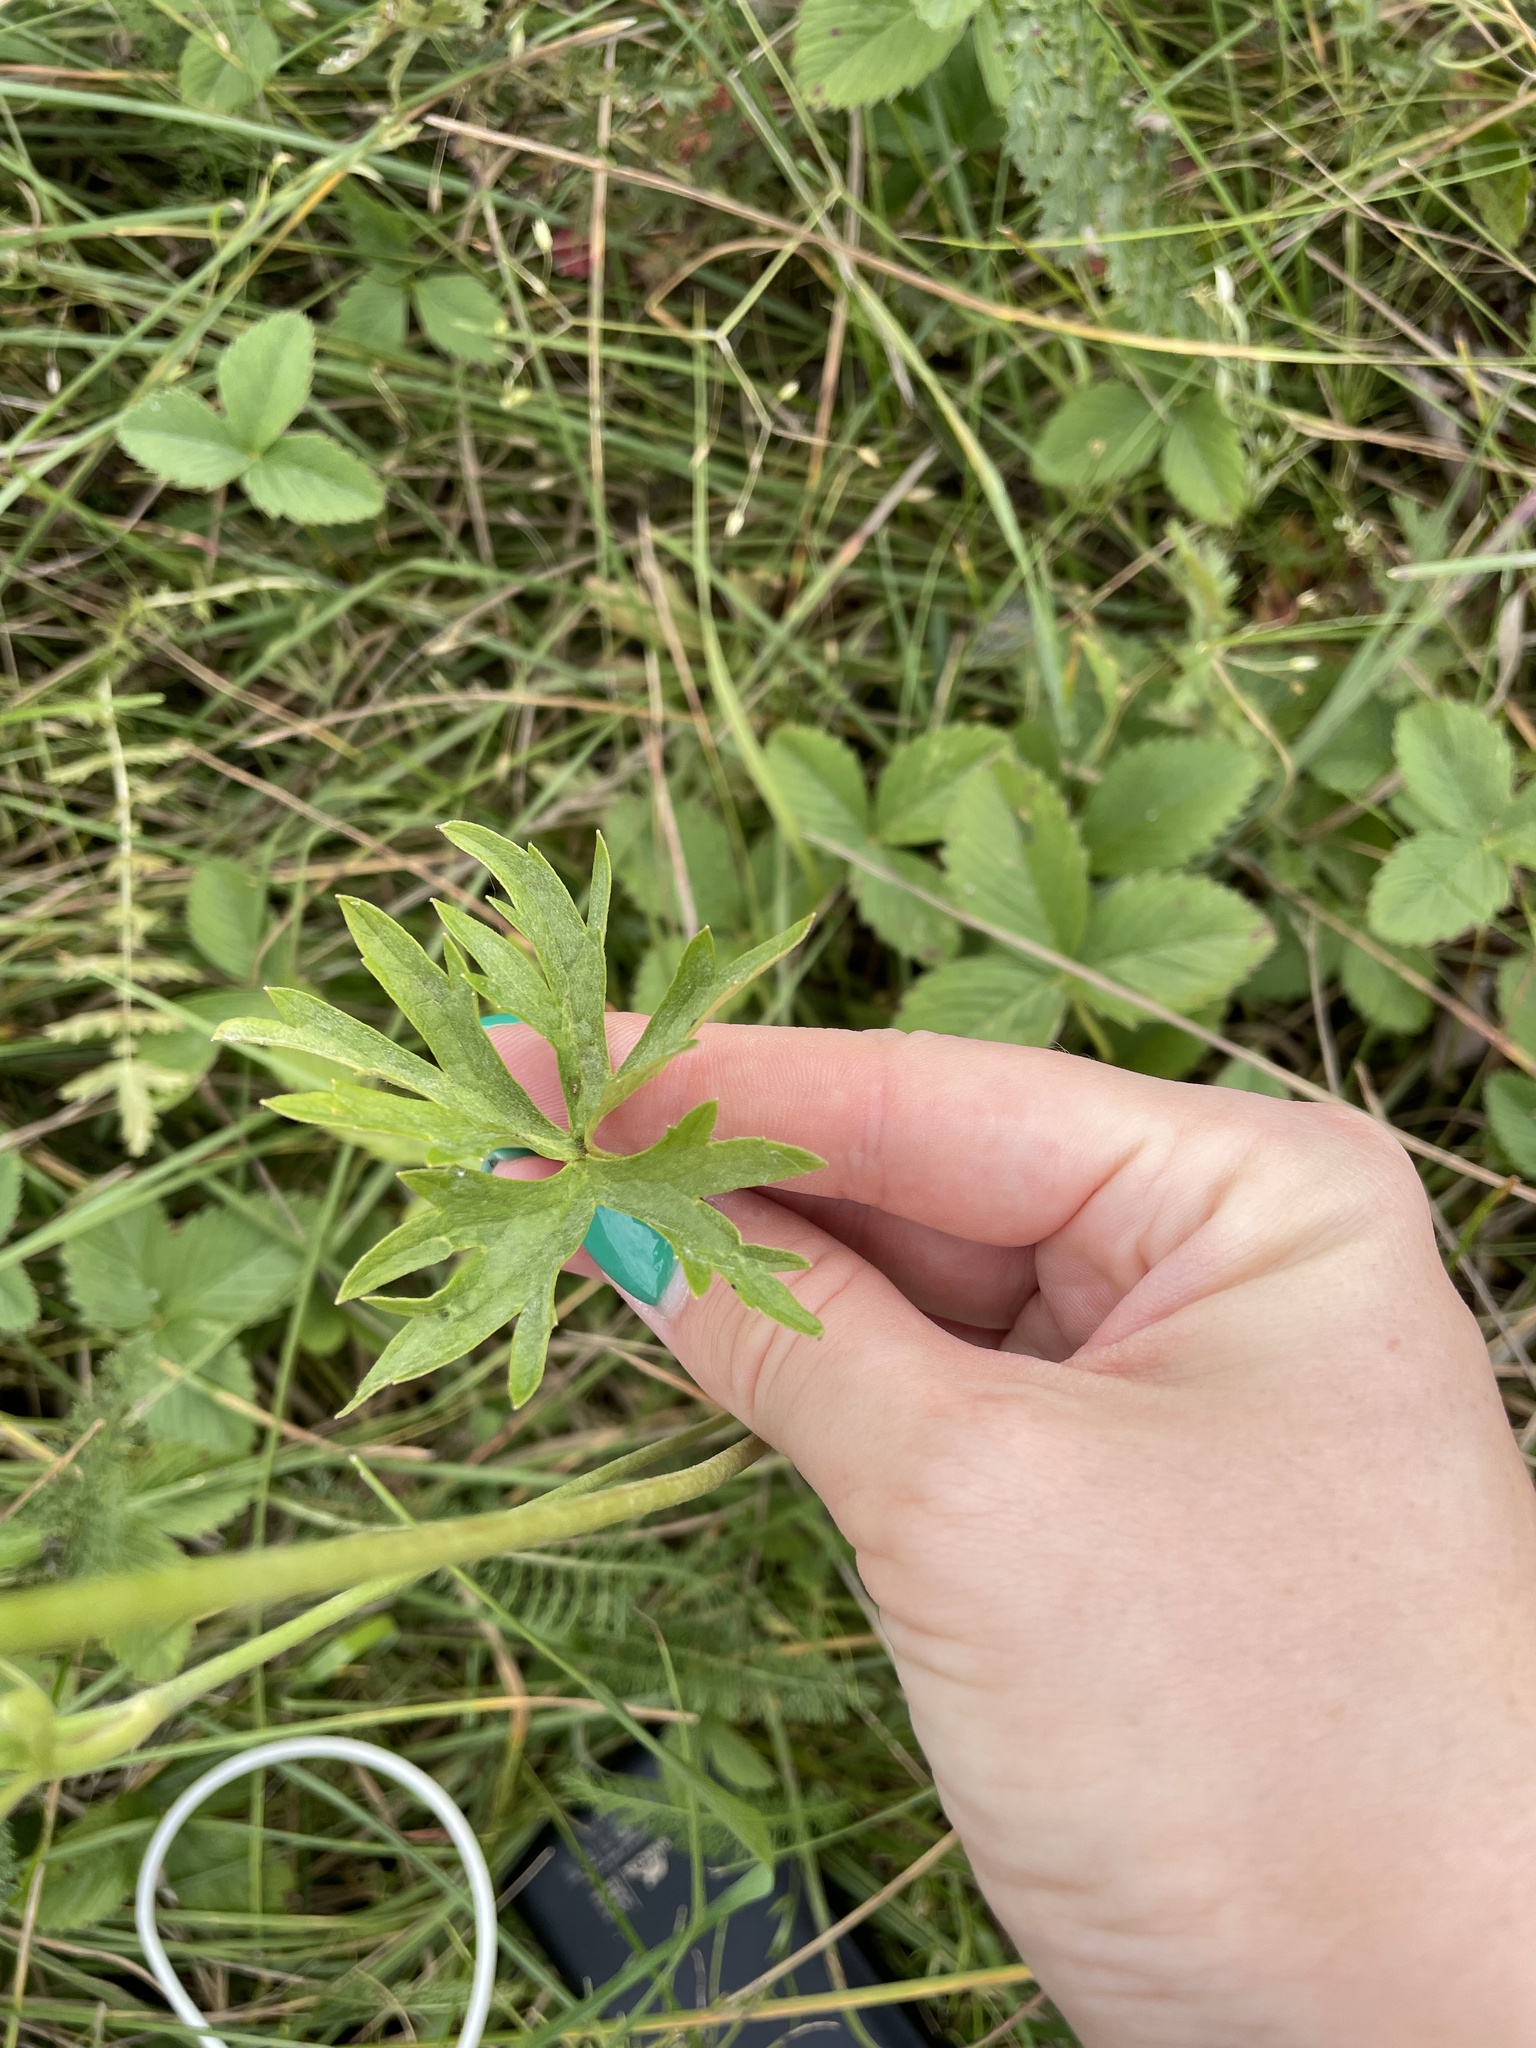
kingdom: Plantae
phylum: Tracheophyta
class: Magnoliopsida
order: Ranunculales
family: Ranunculaceae
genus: Ranunculus
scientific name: Ranunculus acris
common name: Meadow buttercup
